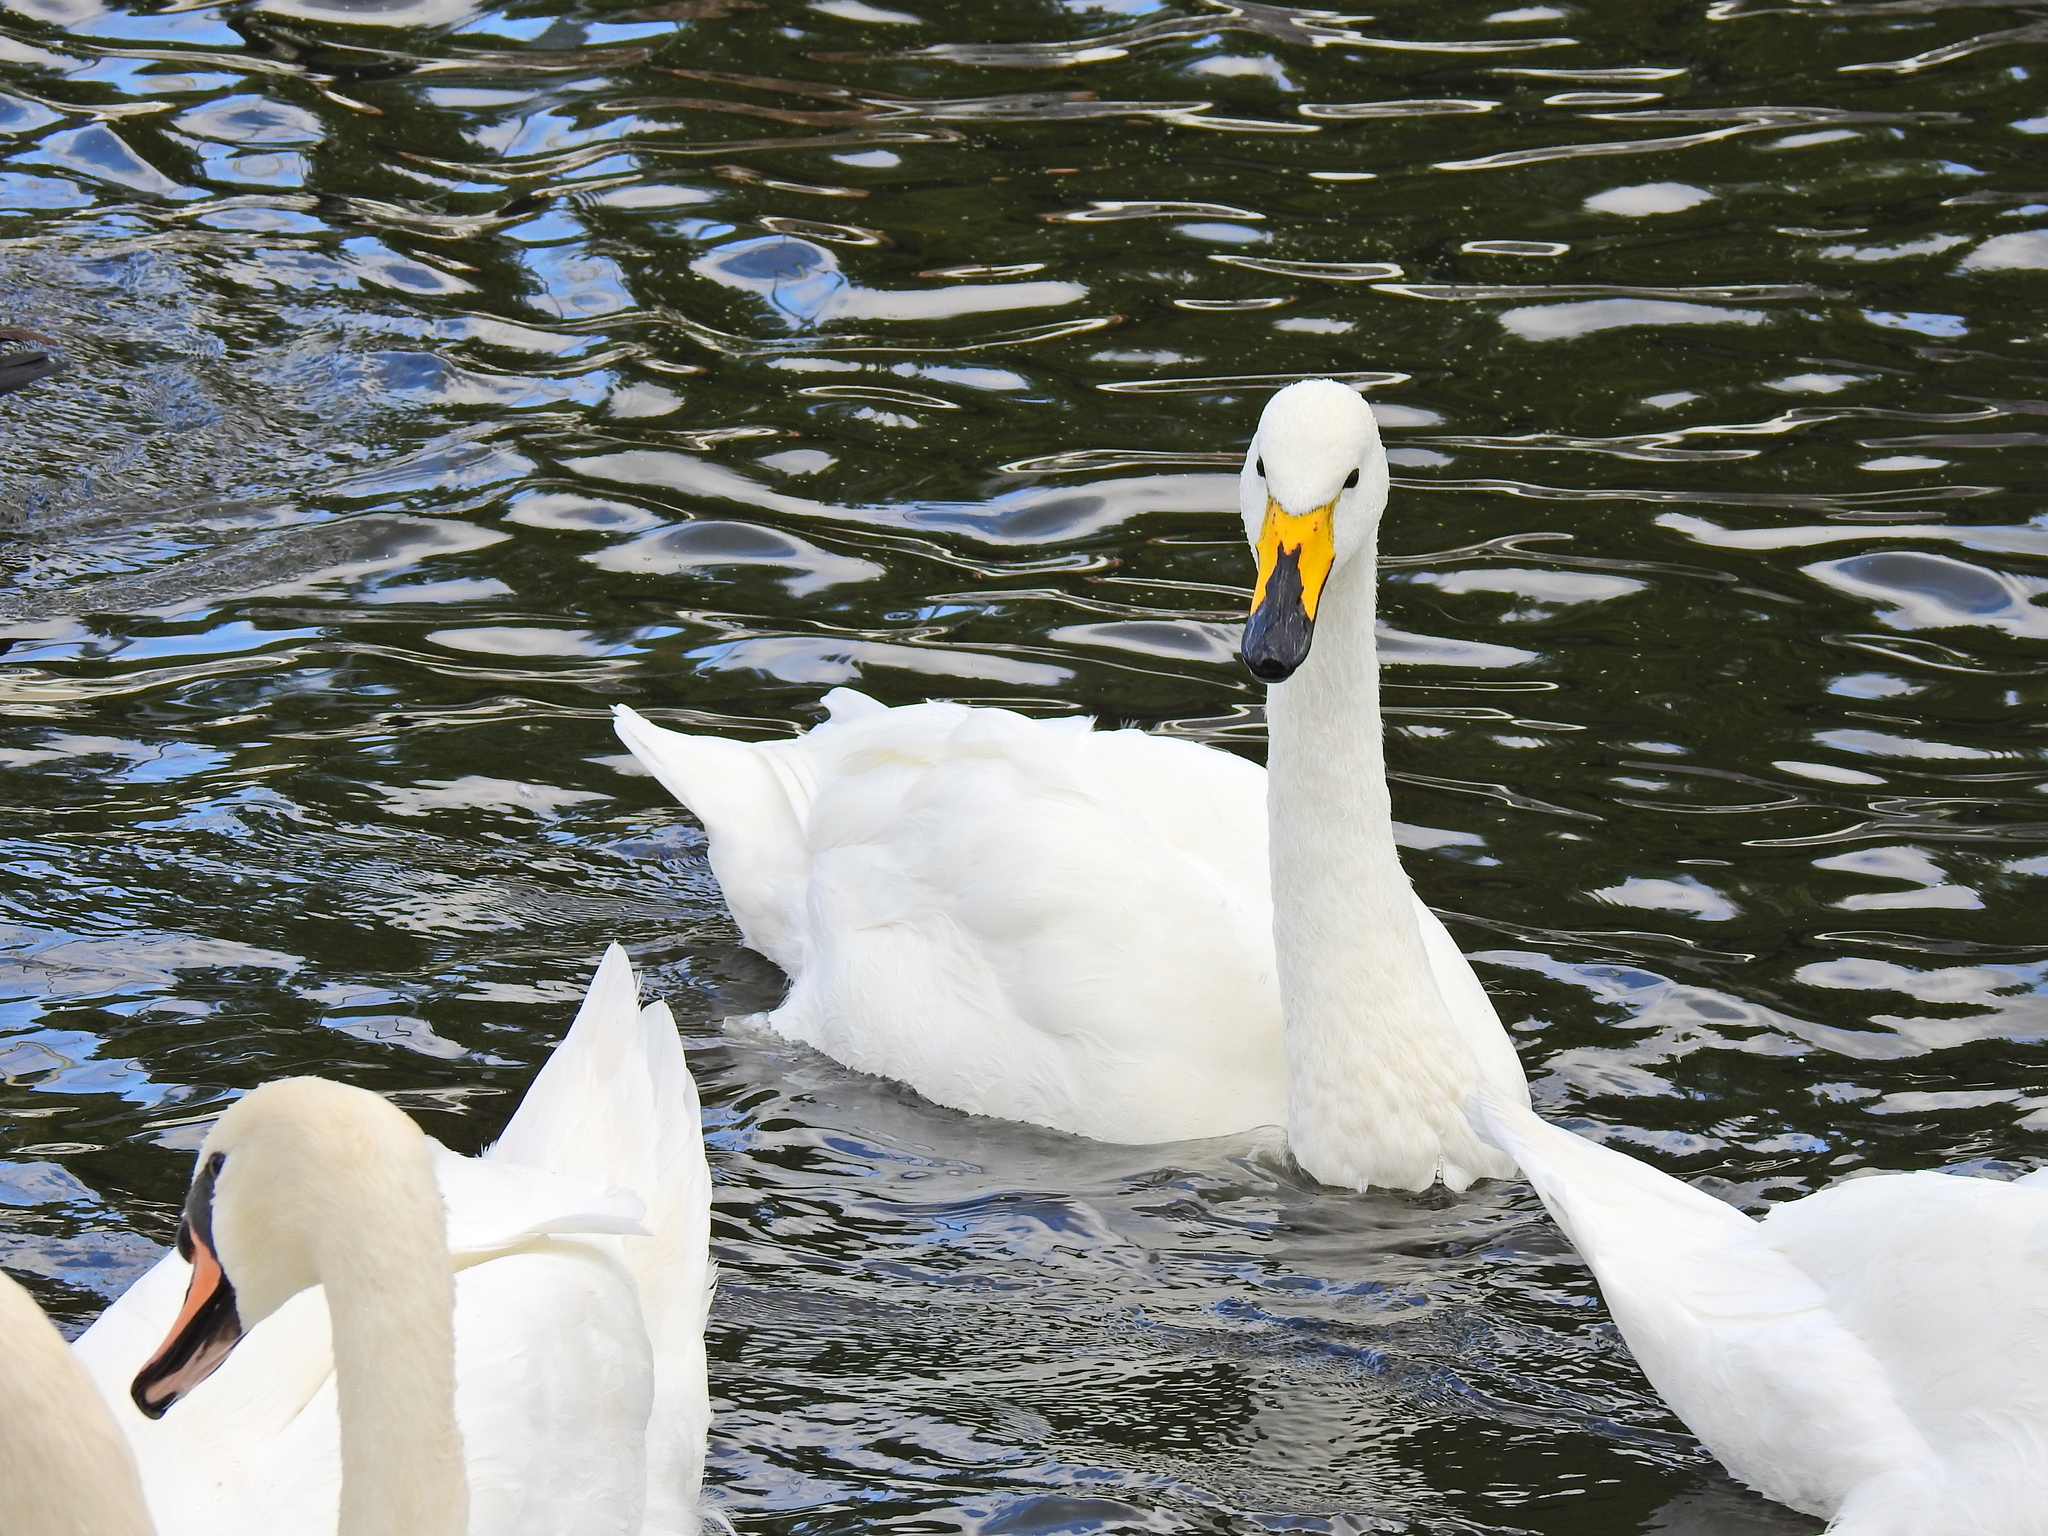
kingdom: Animalia
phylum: Chordata
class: Aves
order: Anseriformes
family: Anatidae
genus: Cygnus
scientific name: Cygnus cygnus
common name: Whooper swan
